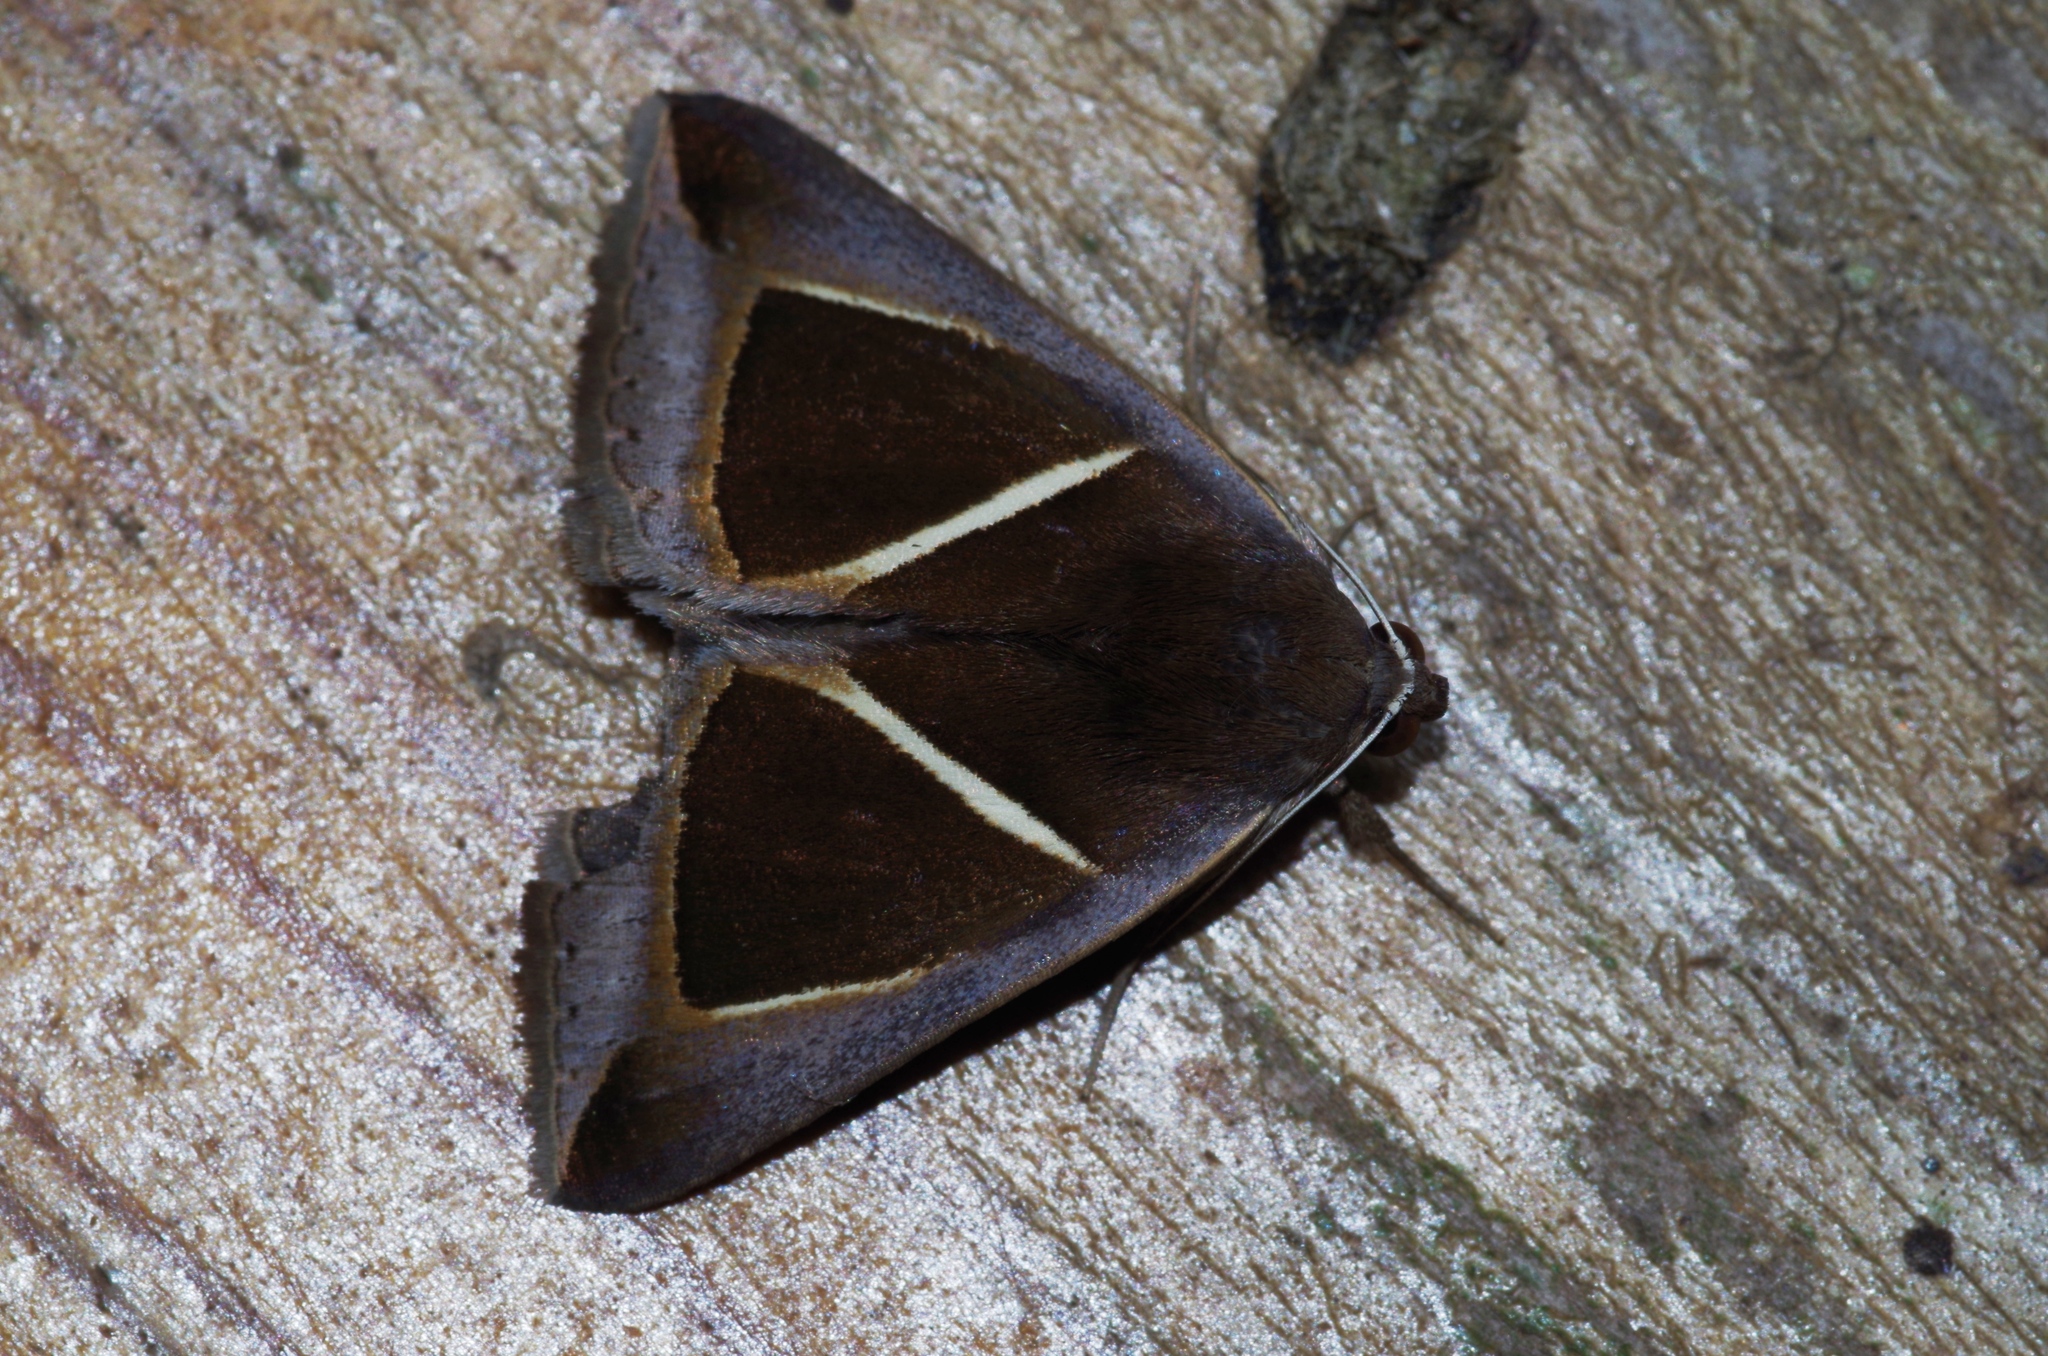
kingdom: Animalia
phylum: Arthropoda
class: Insecta
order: Lepidoptera
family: Erebidae
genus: Chalciope
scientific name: Chalciope mygdon
